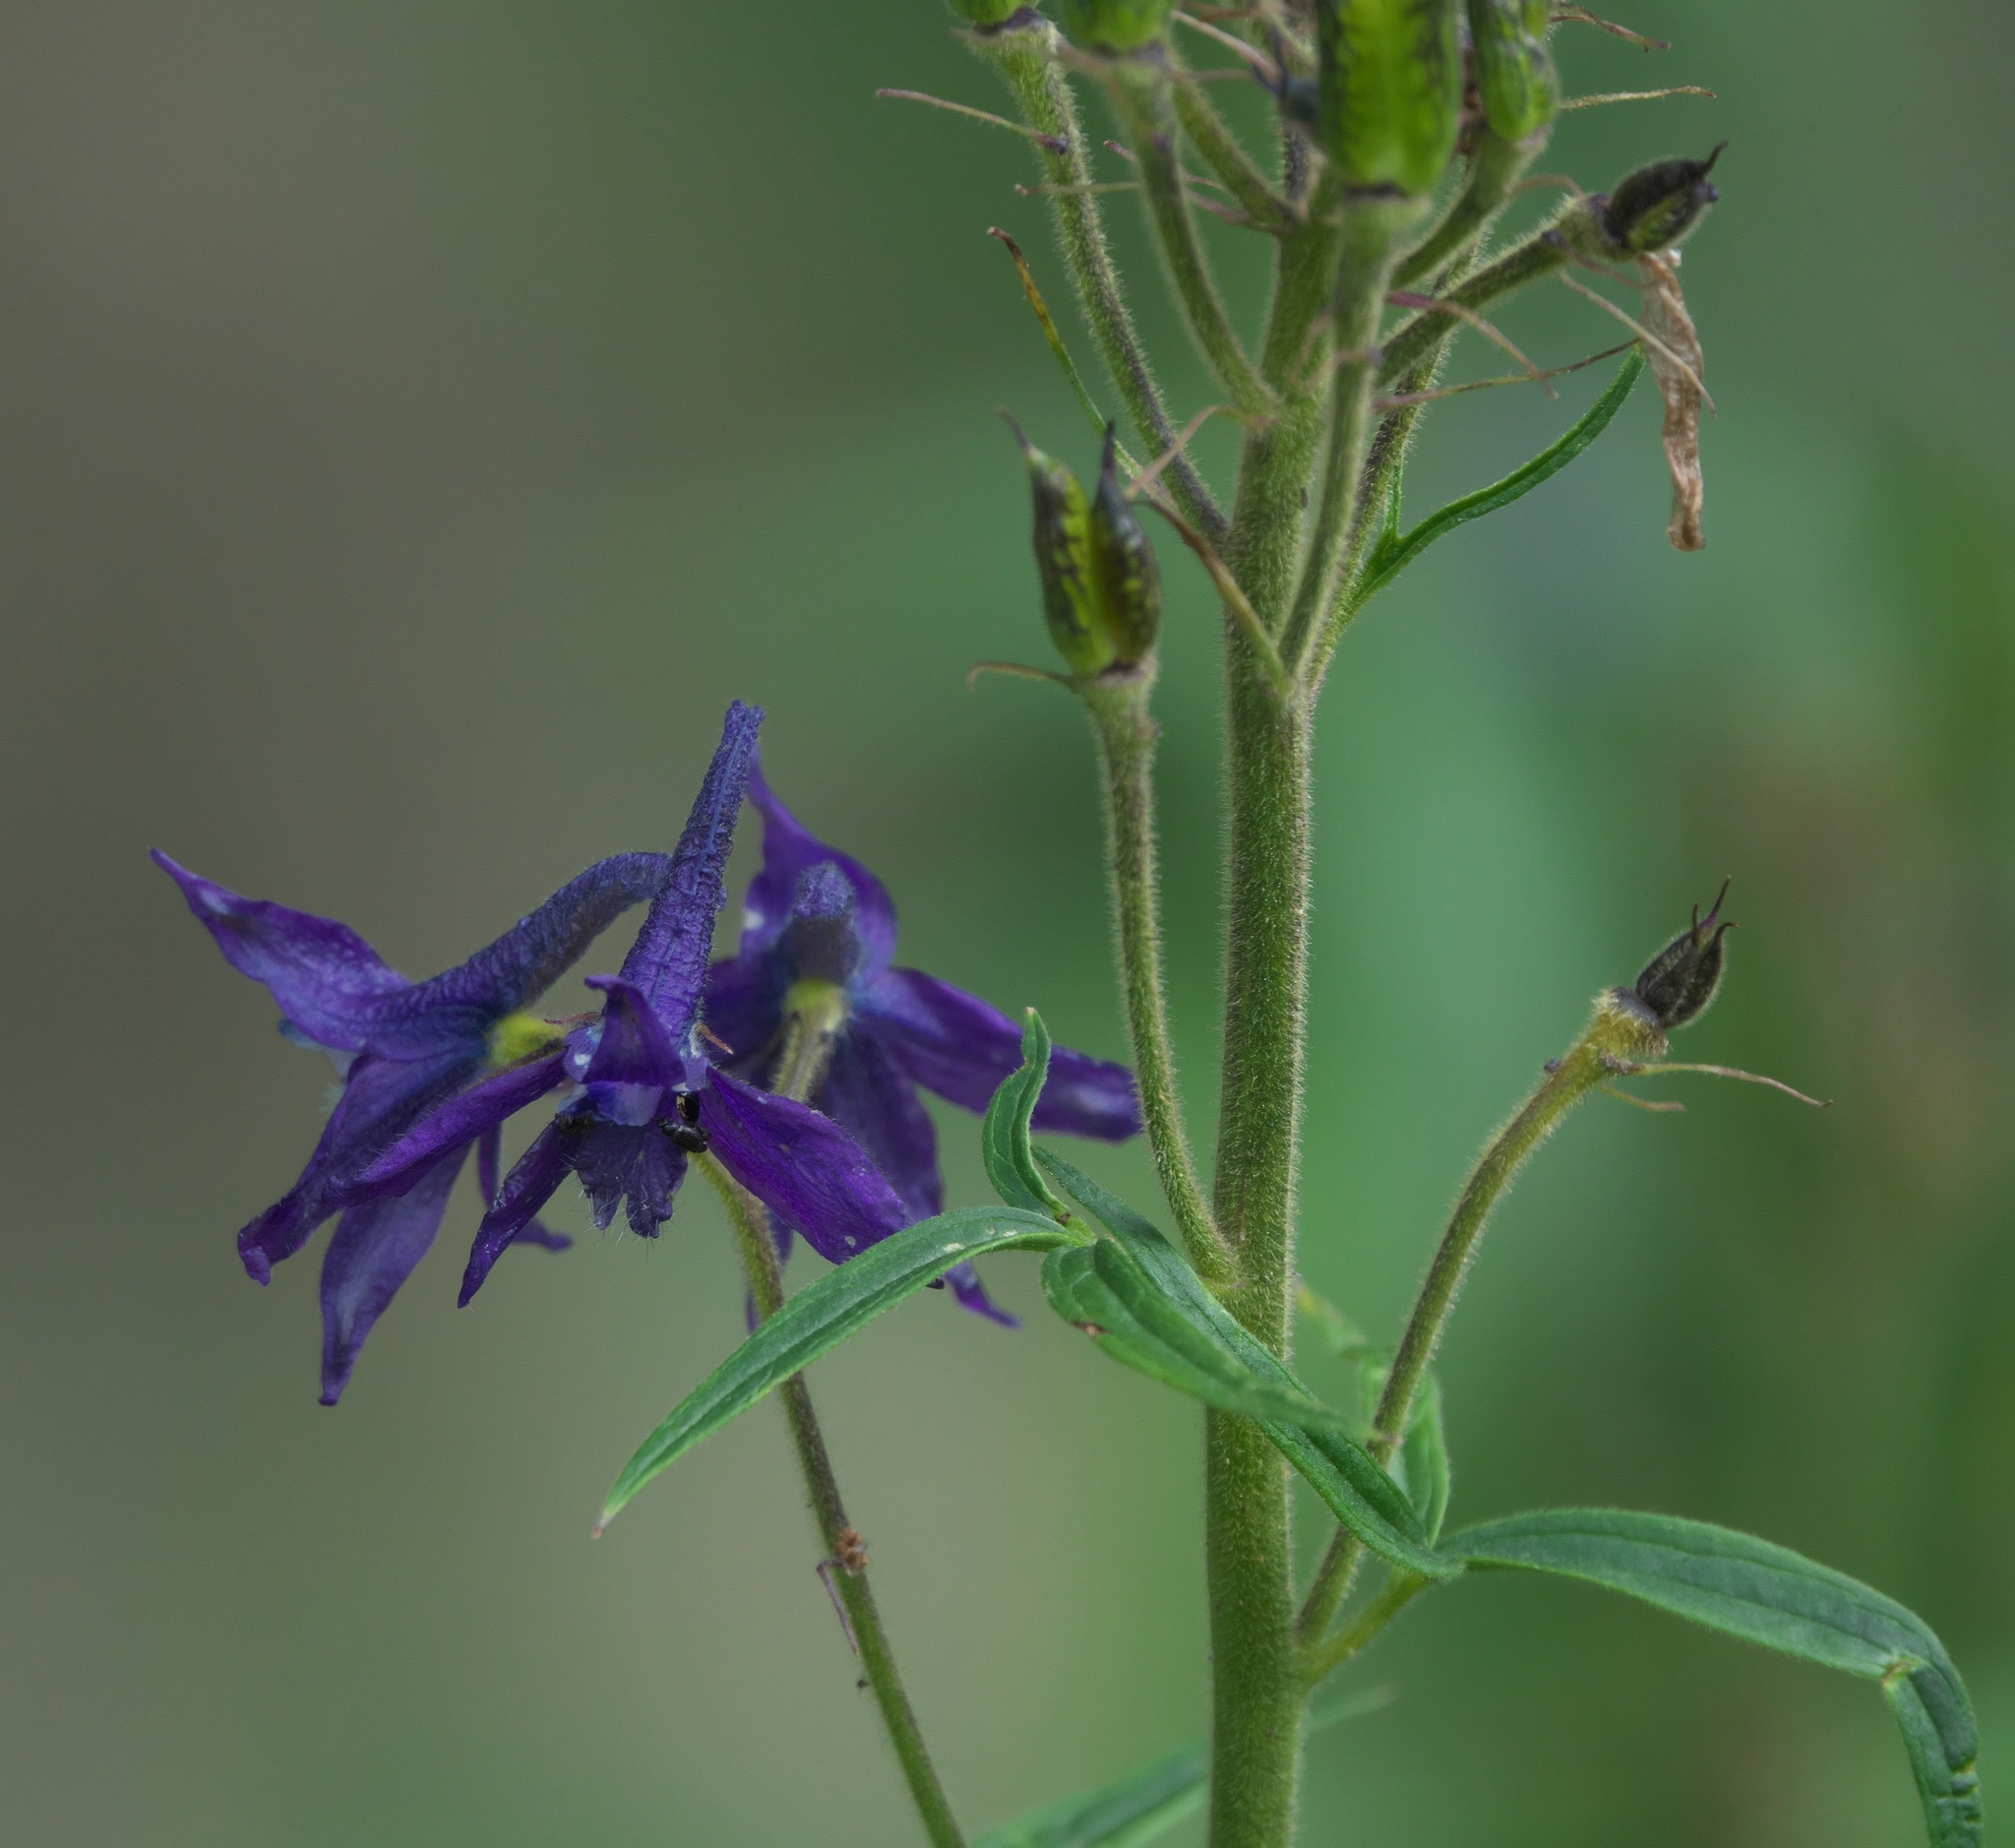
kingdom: Plantae
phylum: Tracheophyta
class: Magnoliopsida
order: Ranunculales
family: Ranunculaceae
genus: Delphinium
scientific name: Delphinium barbeyi
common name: Subalpine larkspur
